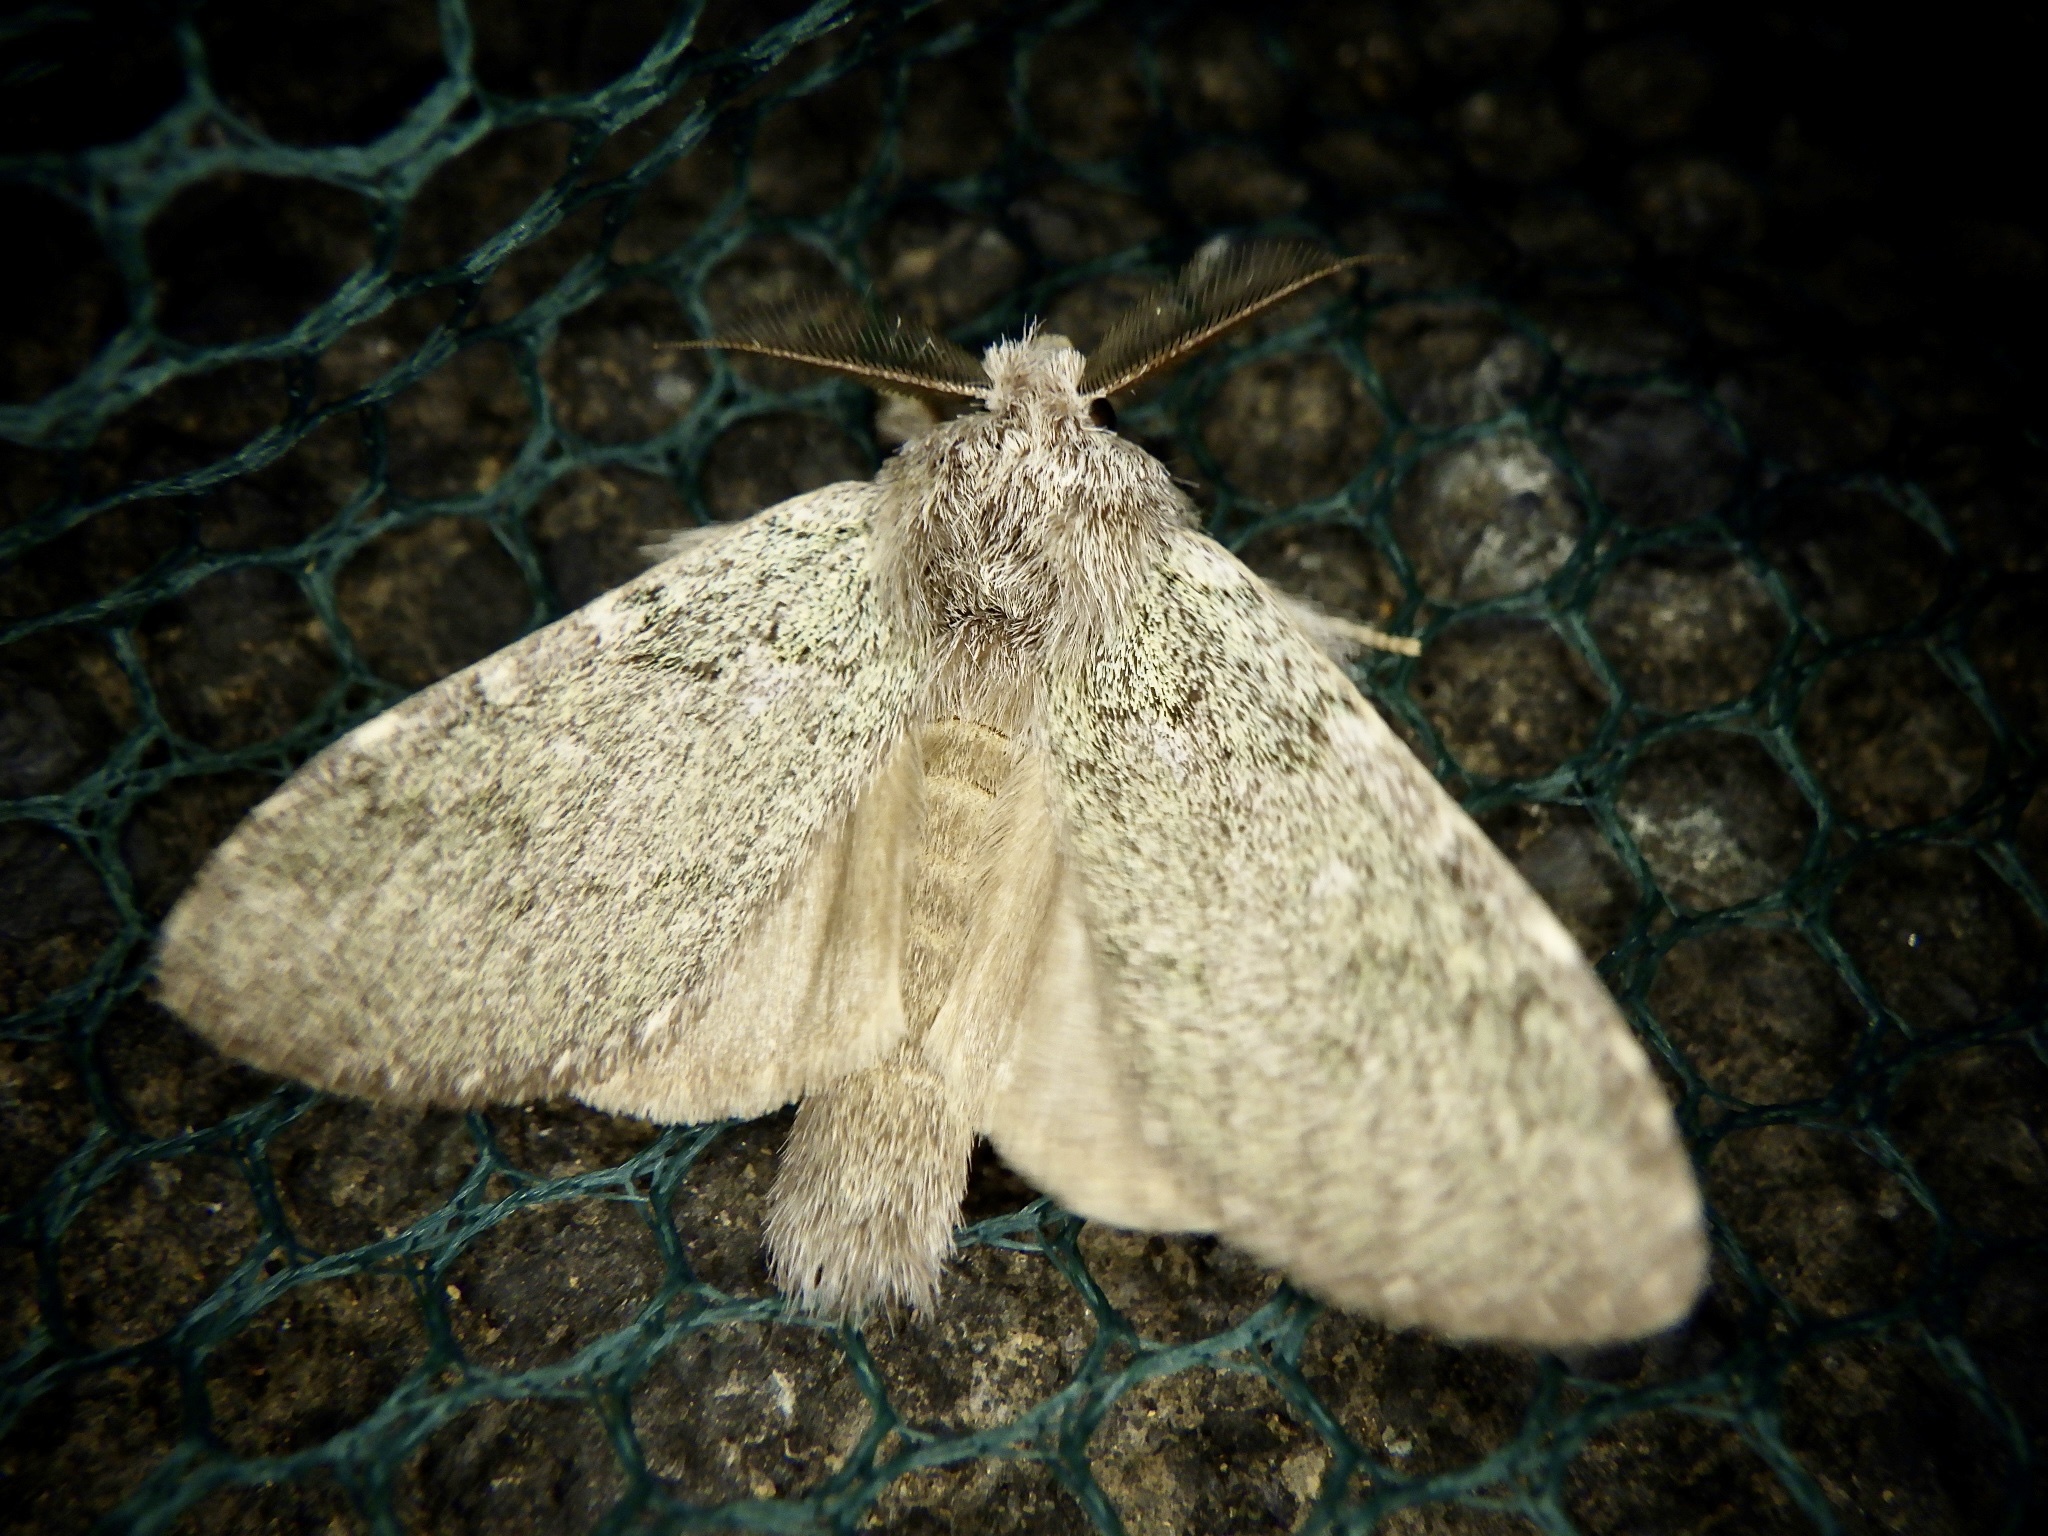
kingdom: Animalia
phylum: Arthropoda
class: Insecta
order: Lepidoptera
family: Notodontidae
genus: Syntypistis
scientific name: Syntypistis
